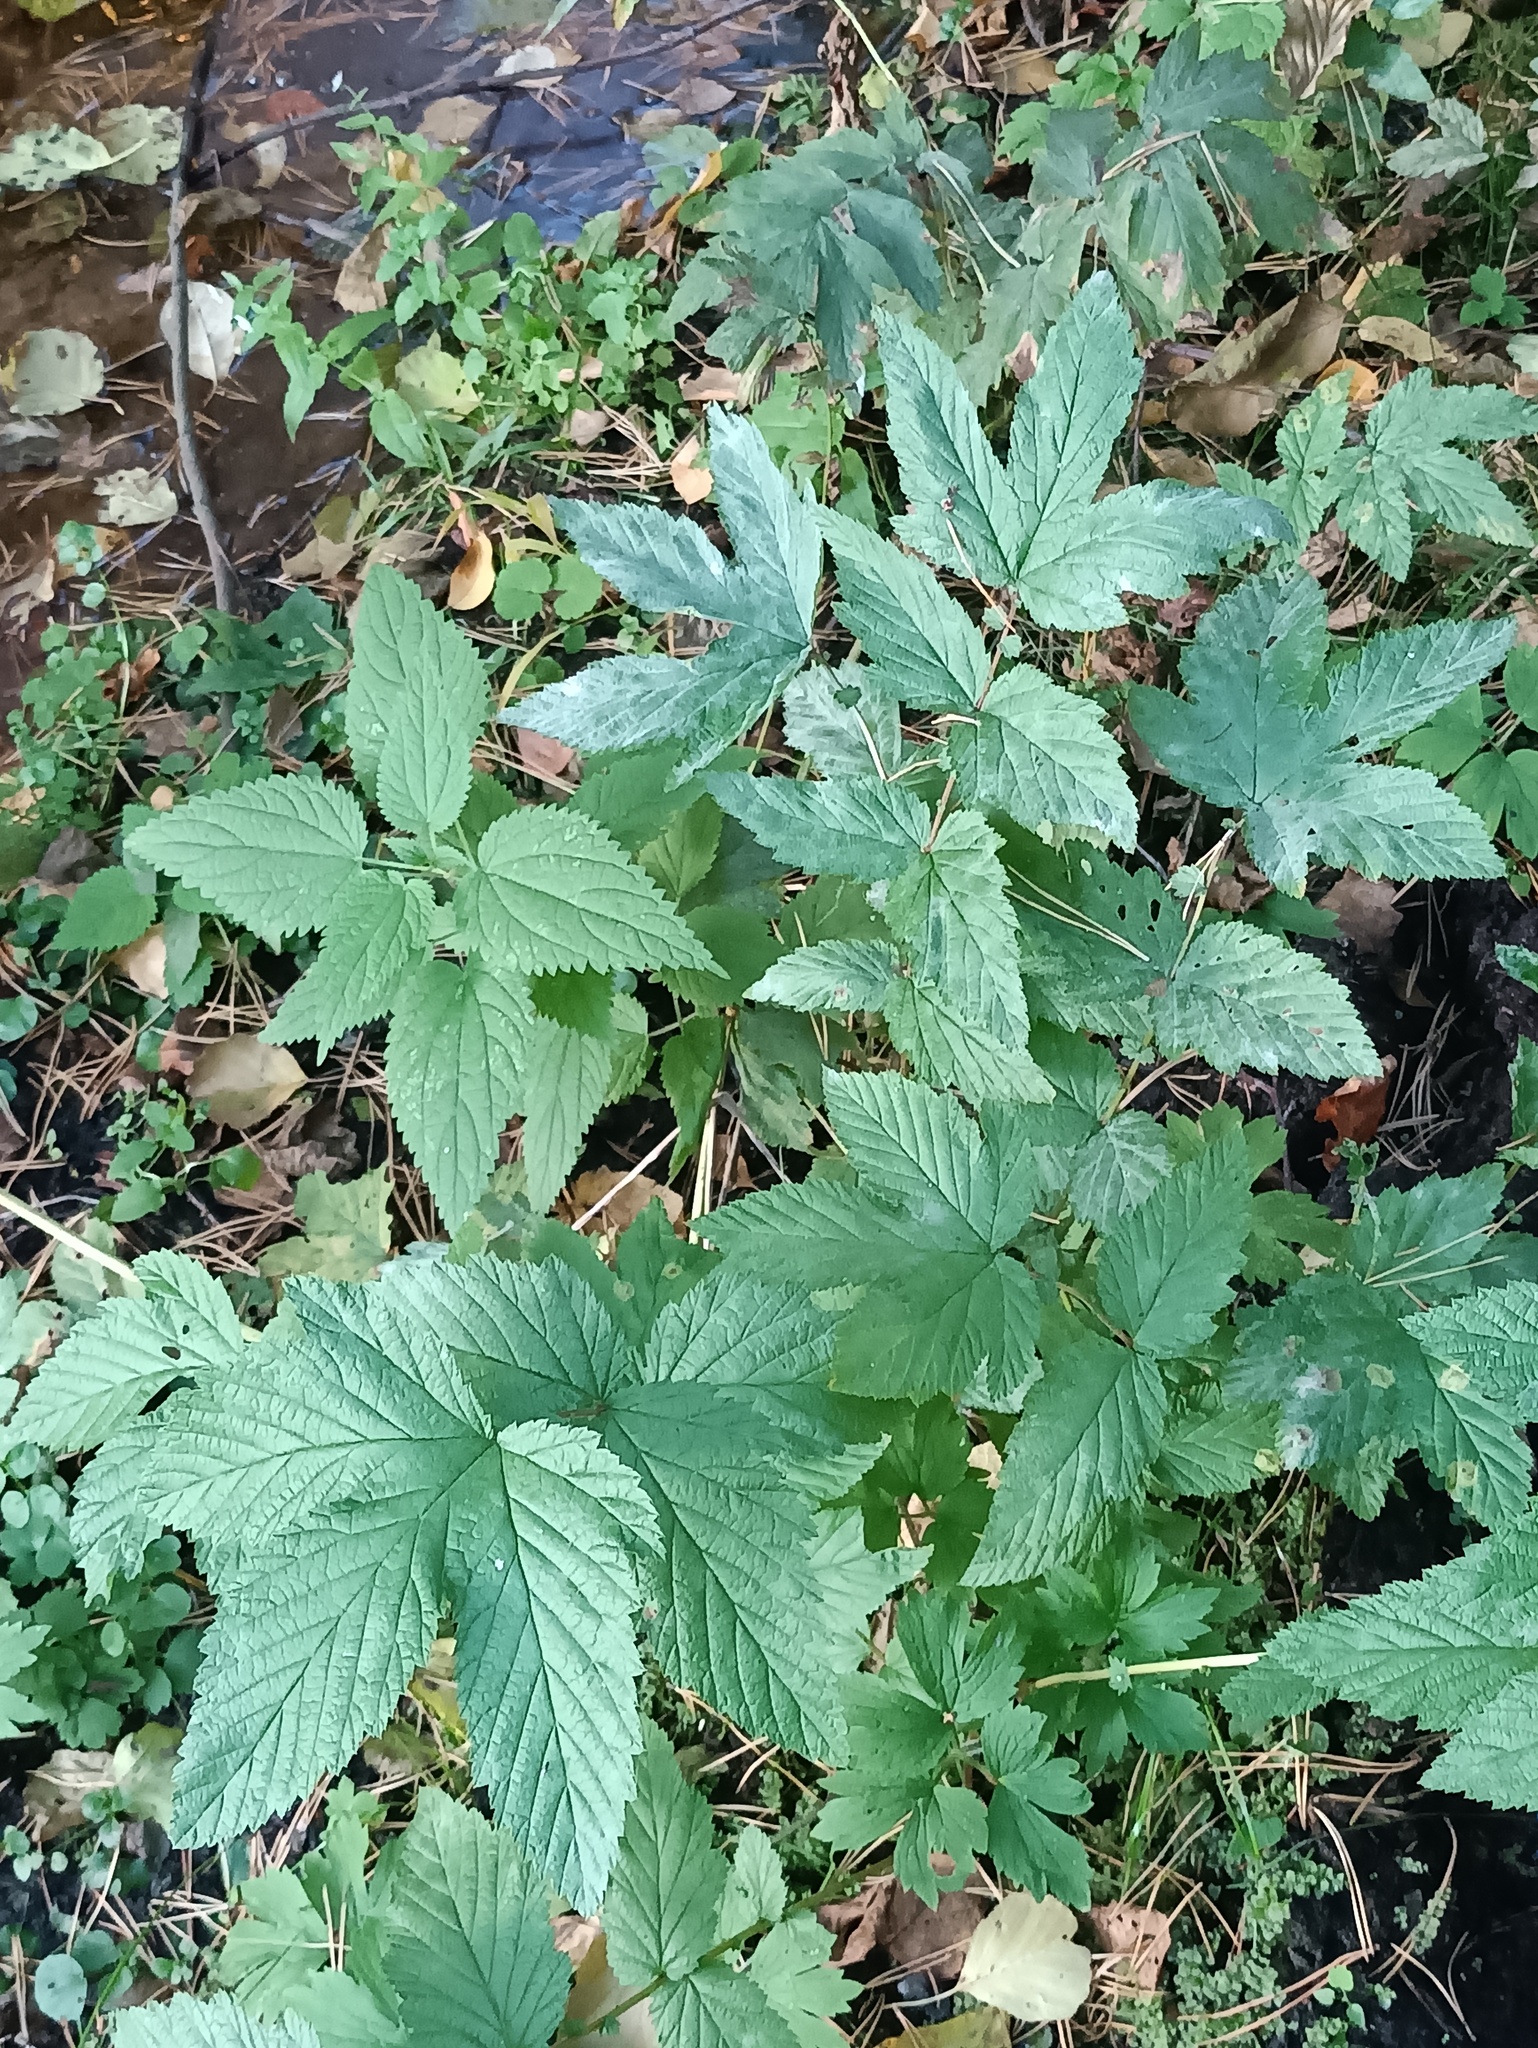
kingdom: Plantae
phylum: Tracheophyta
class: Magnoliopsida
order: Rosales
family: Rosaceae
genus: Filipendula
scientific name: Filipendula ulmaria
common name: Meadowsweet
